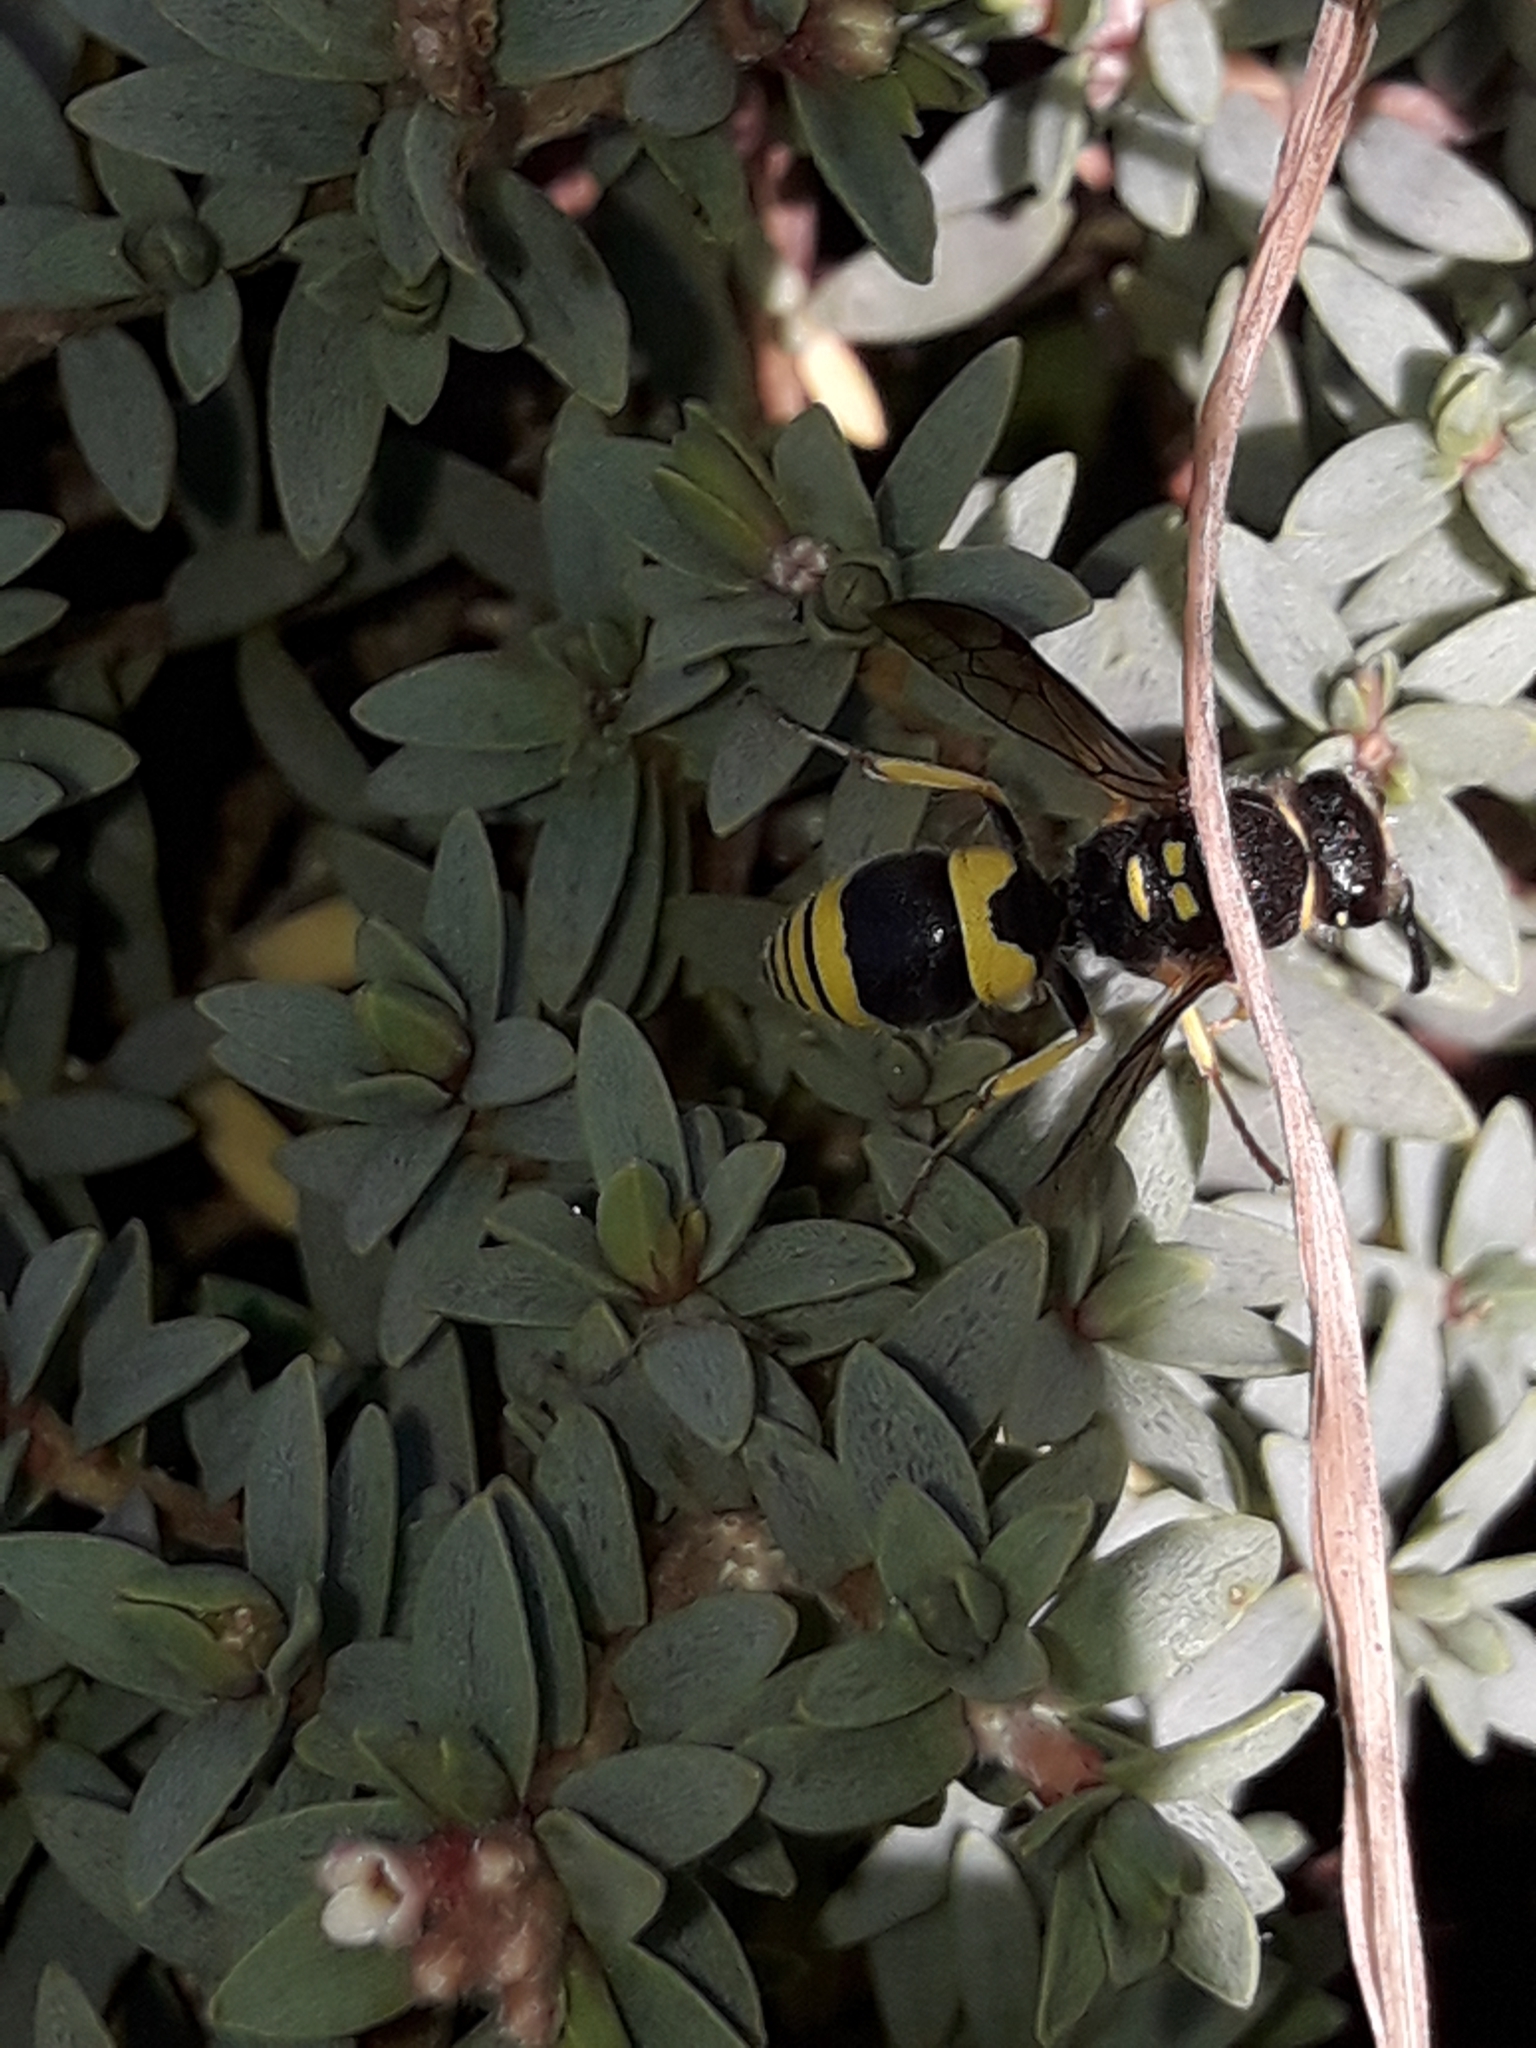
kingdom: Animalia
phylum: Arthropoda
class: Insecta
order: Hymenoptera
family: Vespidae
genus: Ancistrocerus
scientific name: Ancistrocerus gazella
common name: European tube wasp
